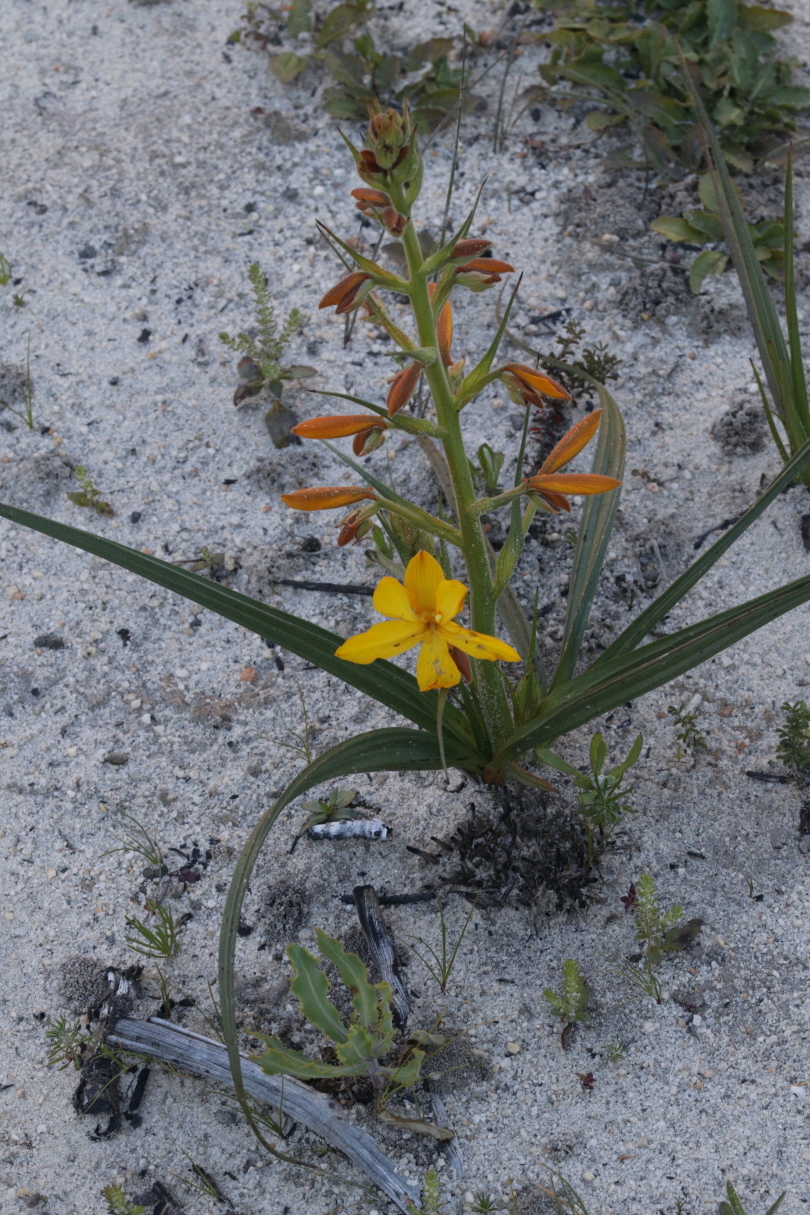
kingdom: Plantae
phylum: Tracheophyta
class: Liliopsida
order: Commelinales
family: Haemodoraceae
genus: Wachendorfia
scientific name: Wachendorfia paniculata
